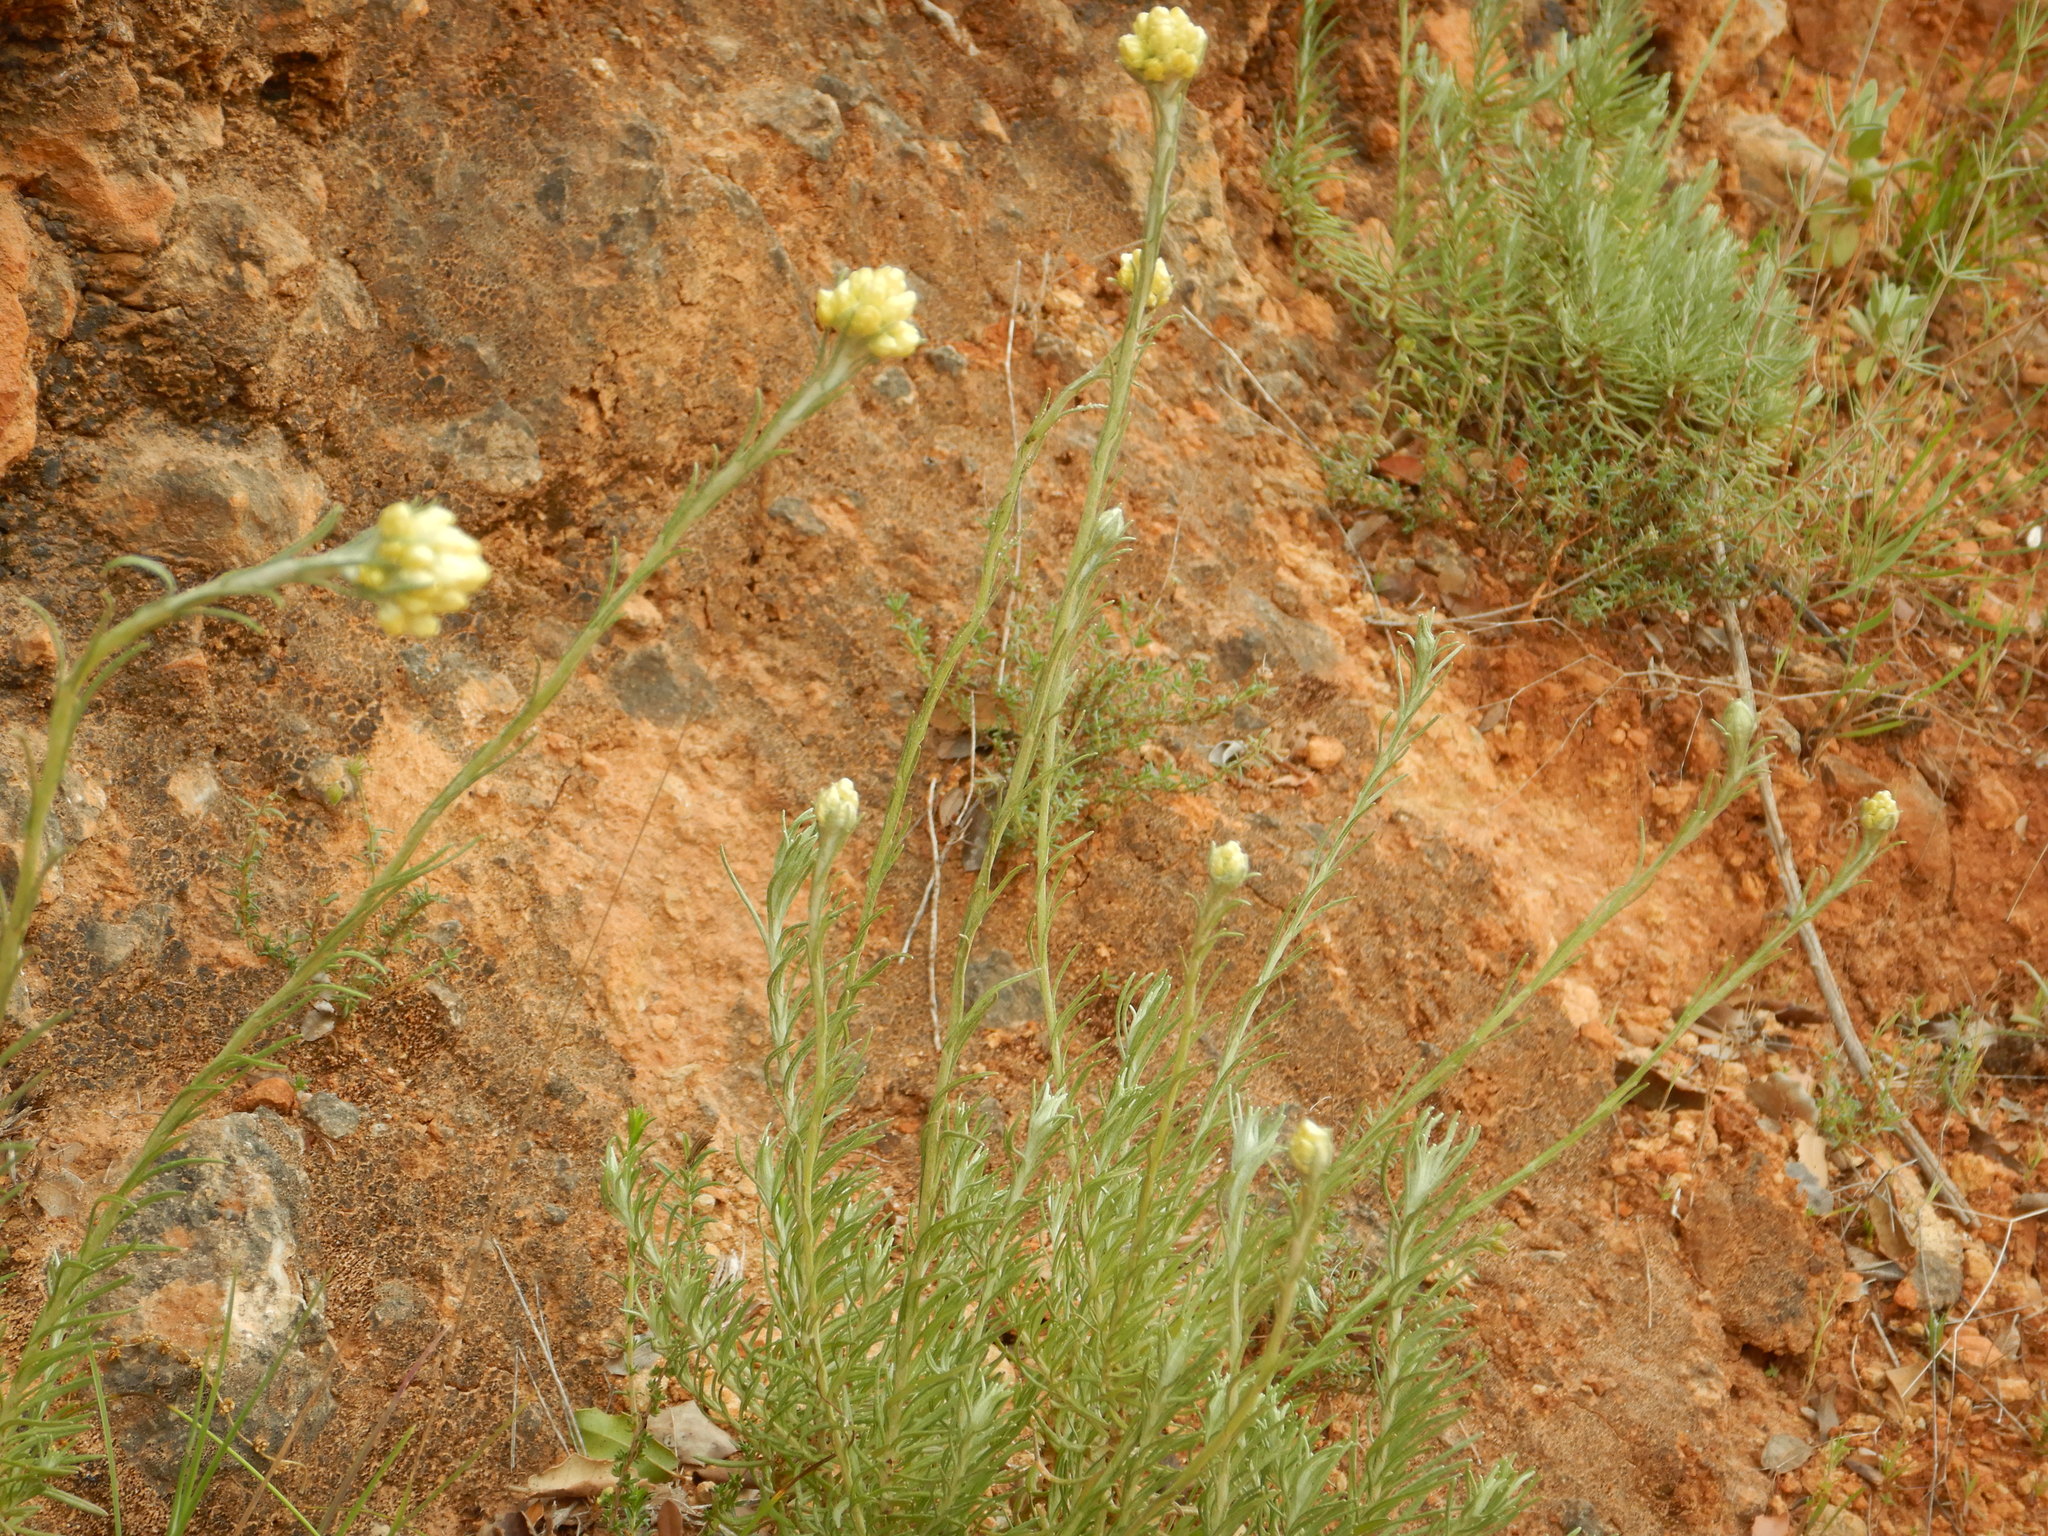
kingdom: Plantae
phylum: Tracheophyta
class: Magnoliopsida
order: Asterales
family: Asteraceae
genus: Helichrysum
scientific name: Helichrysum stoechas
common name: Goldilocks
